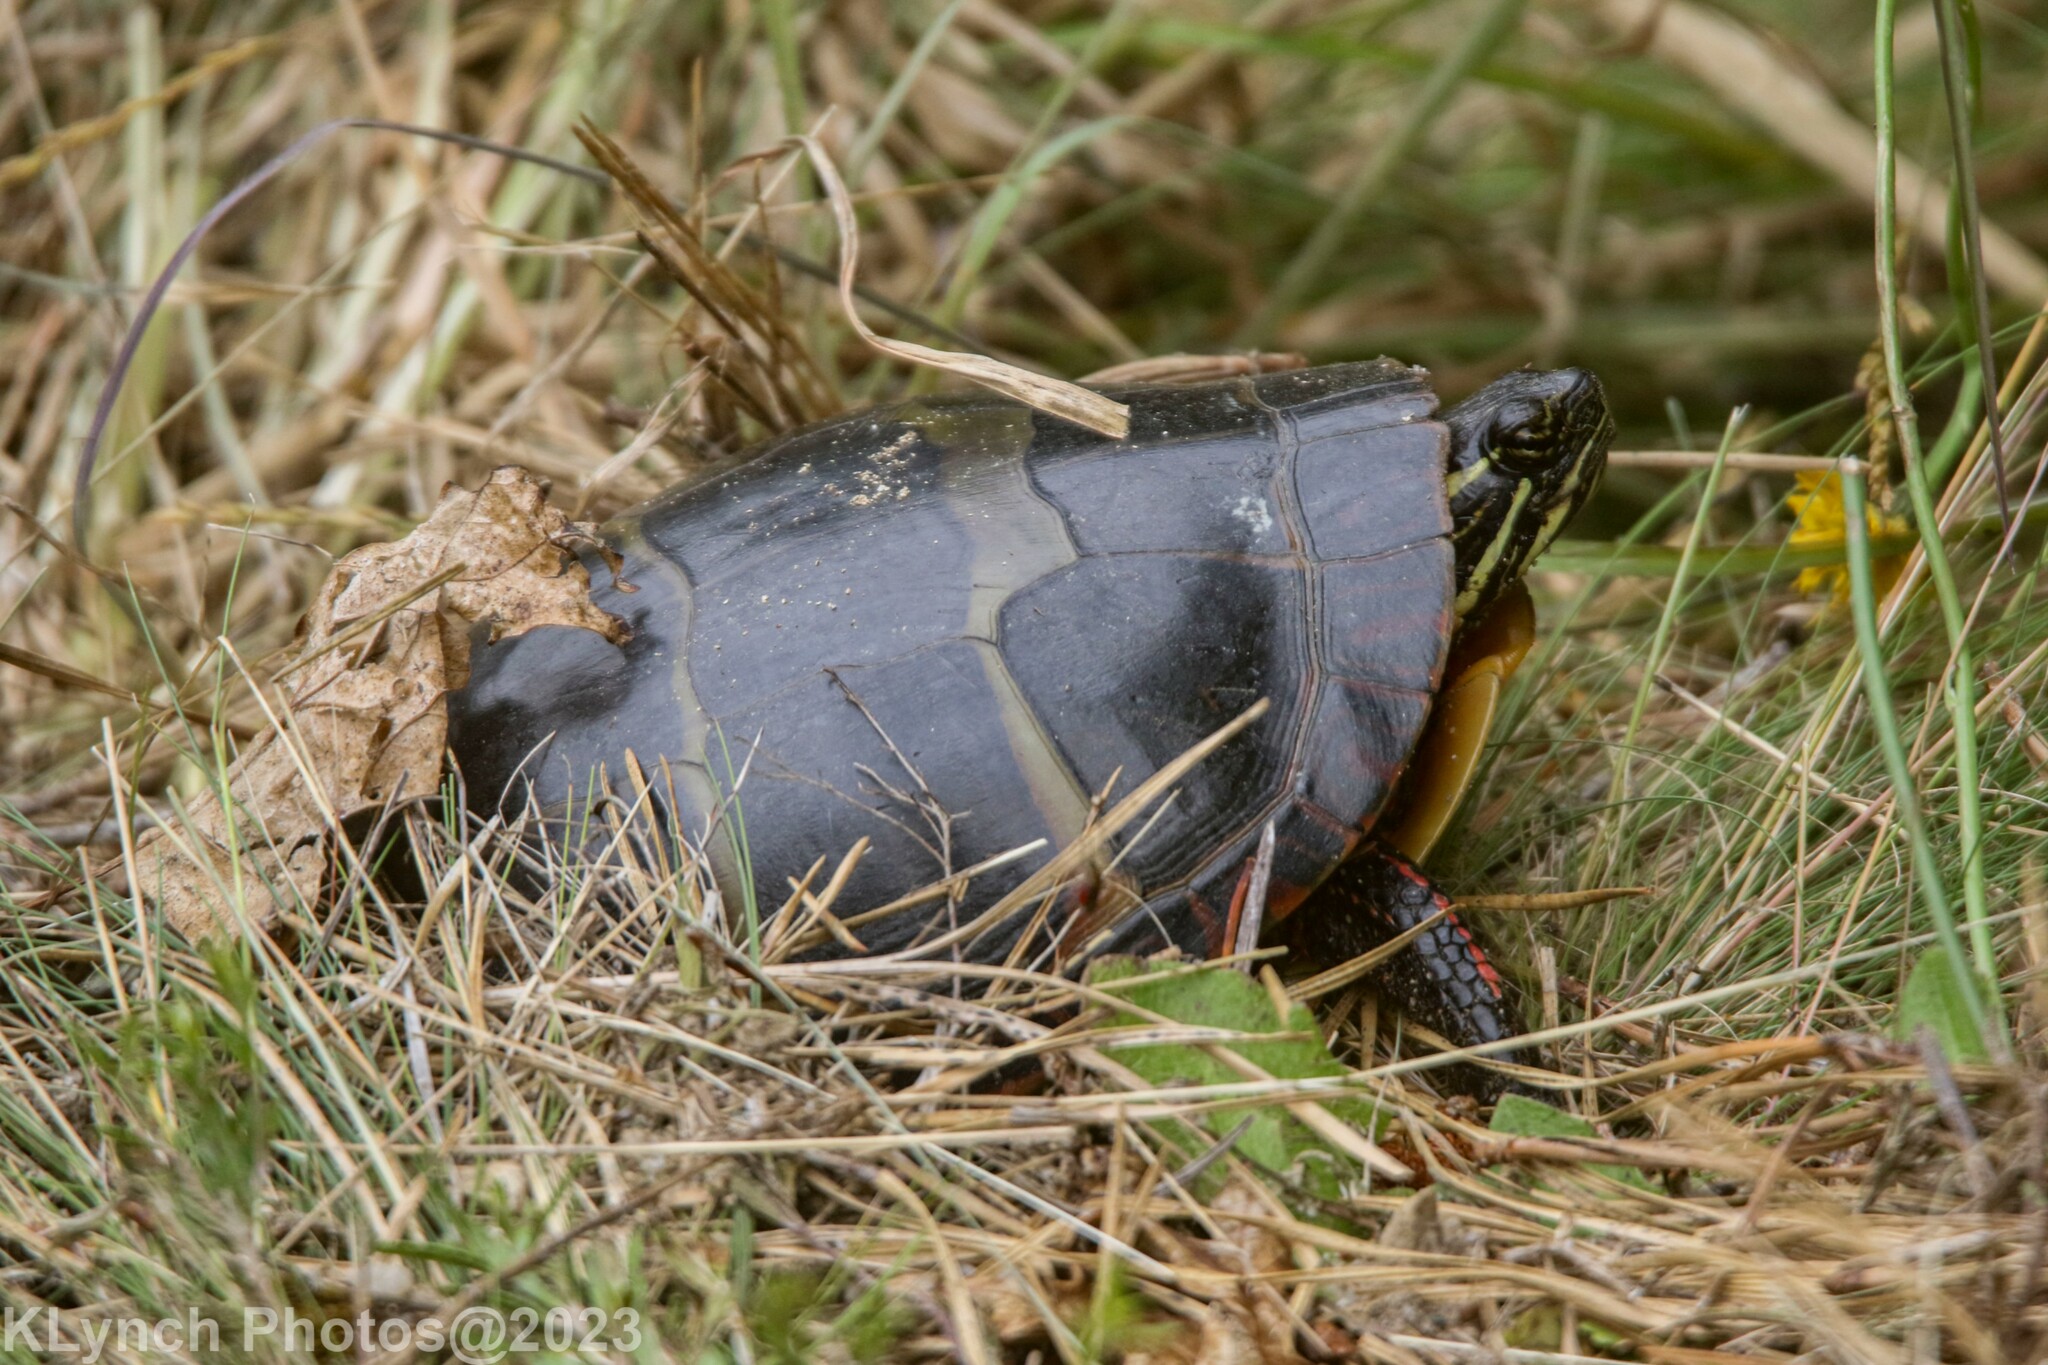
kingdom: Animalia
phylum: Chordata
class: Testudines
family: Emydidae
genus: Chrysemys
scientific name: Chrysemys picta
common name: Painted turtle
